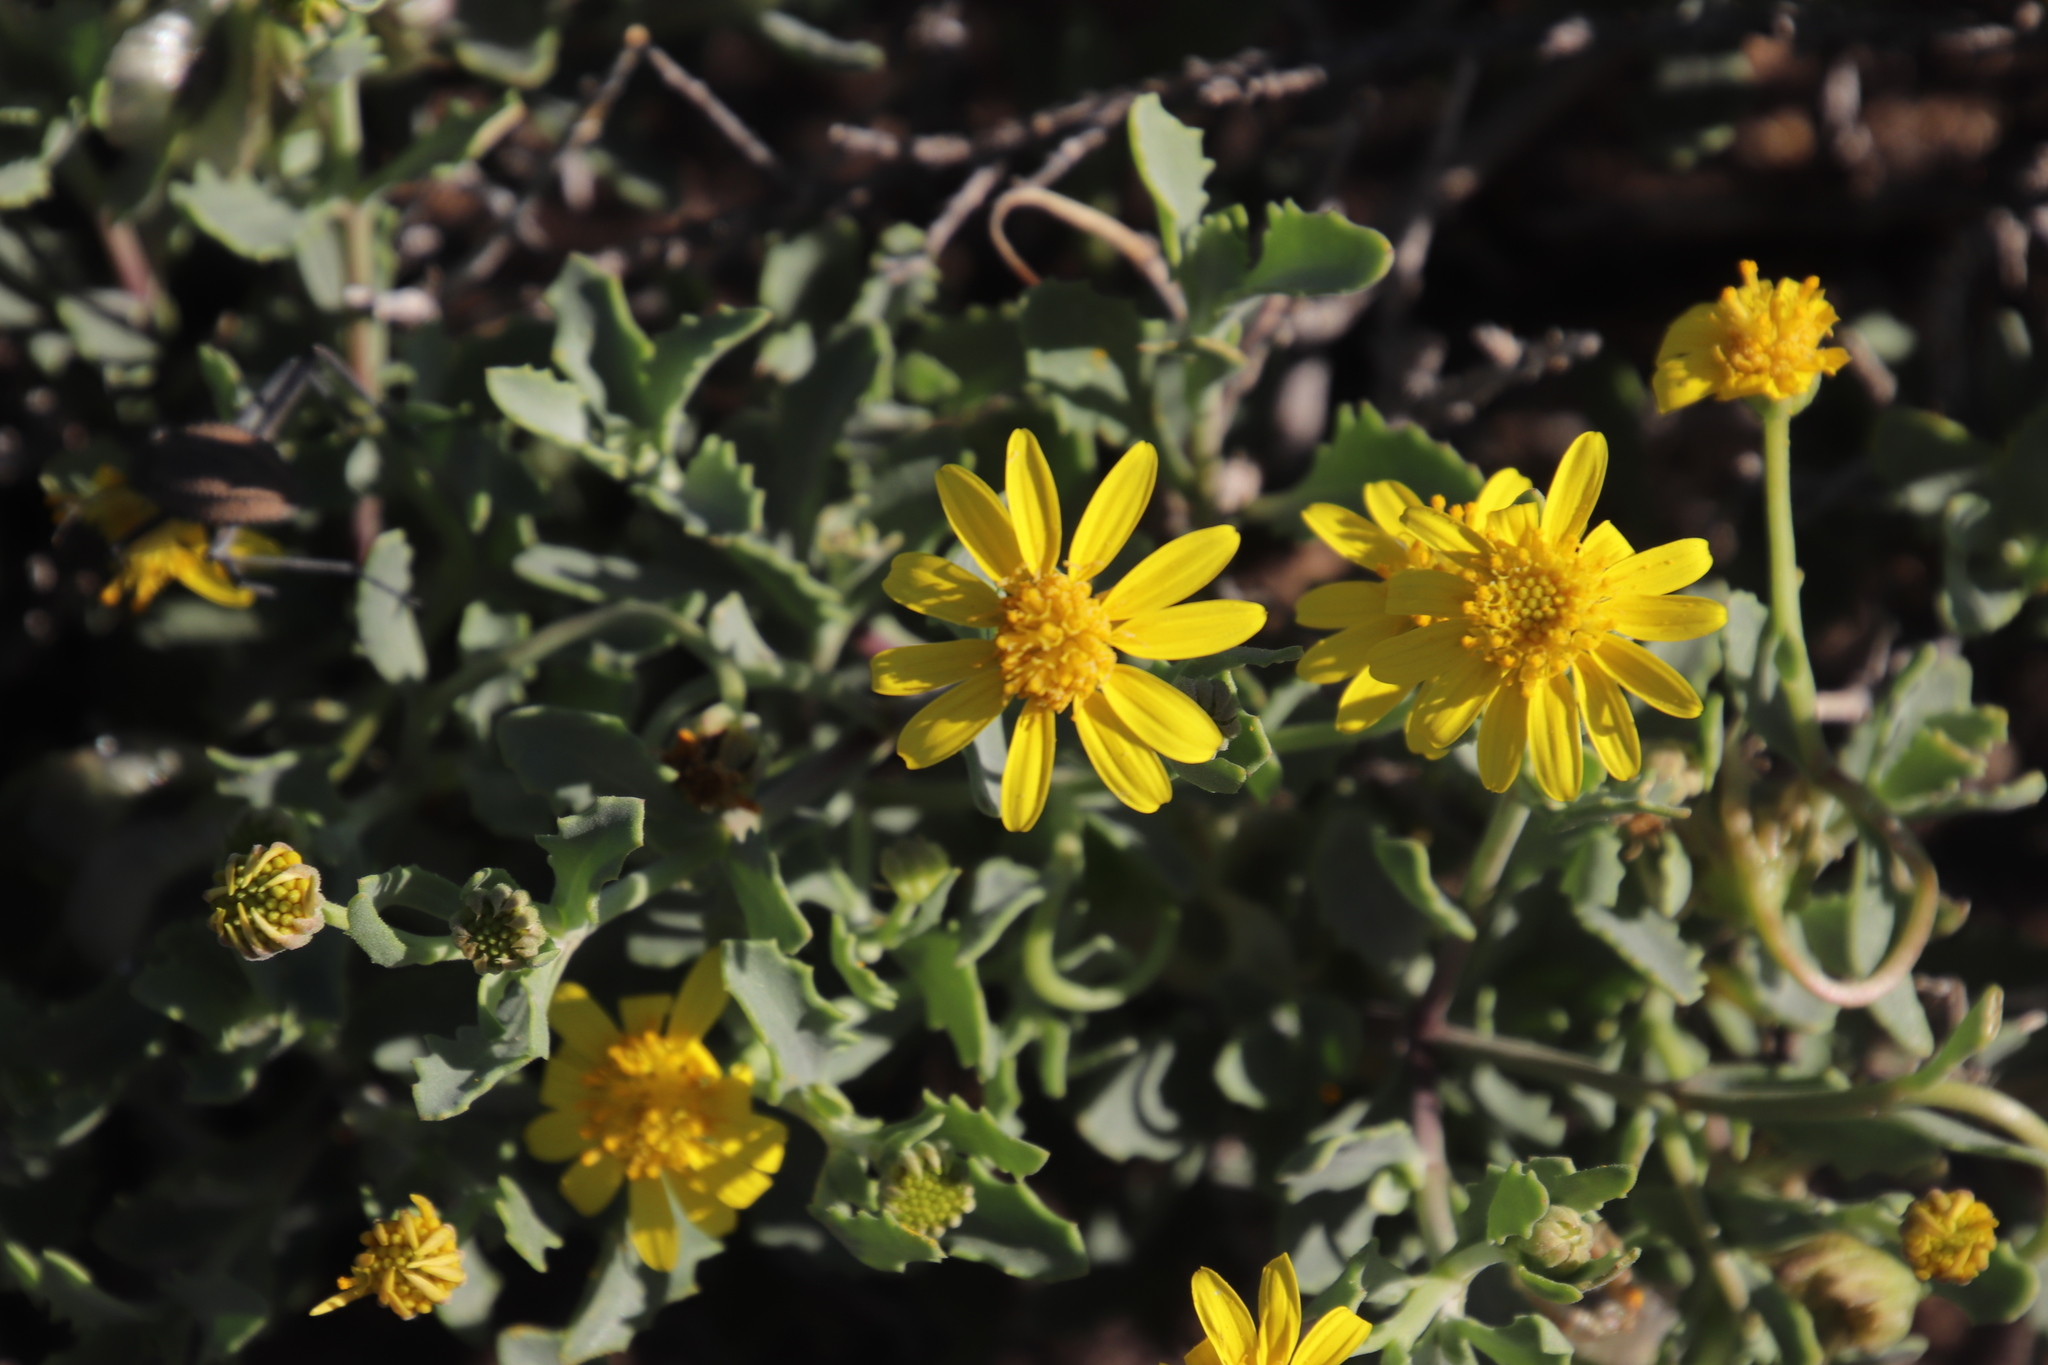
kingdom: Plantae
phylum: Tracheophyta
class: Magnoliopsida
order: Asterales
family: Asteraceae
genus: Osteospermum
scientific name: Osteospermum sinuatum
